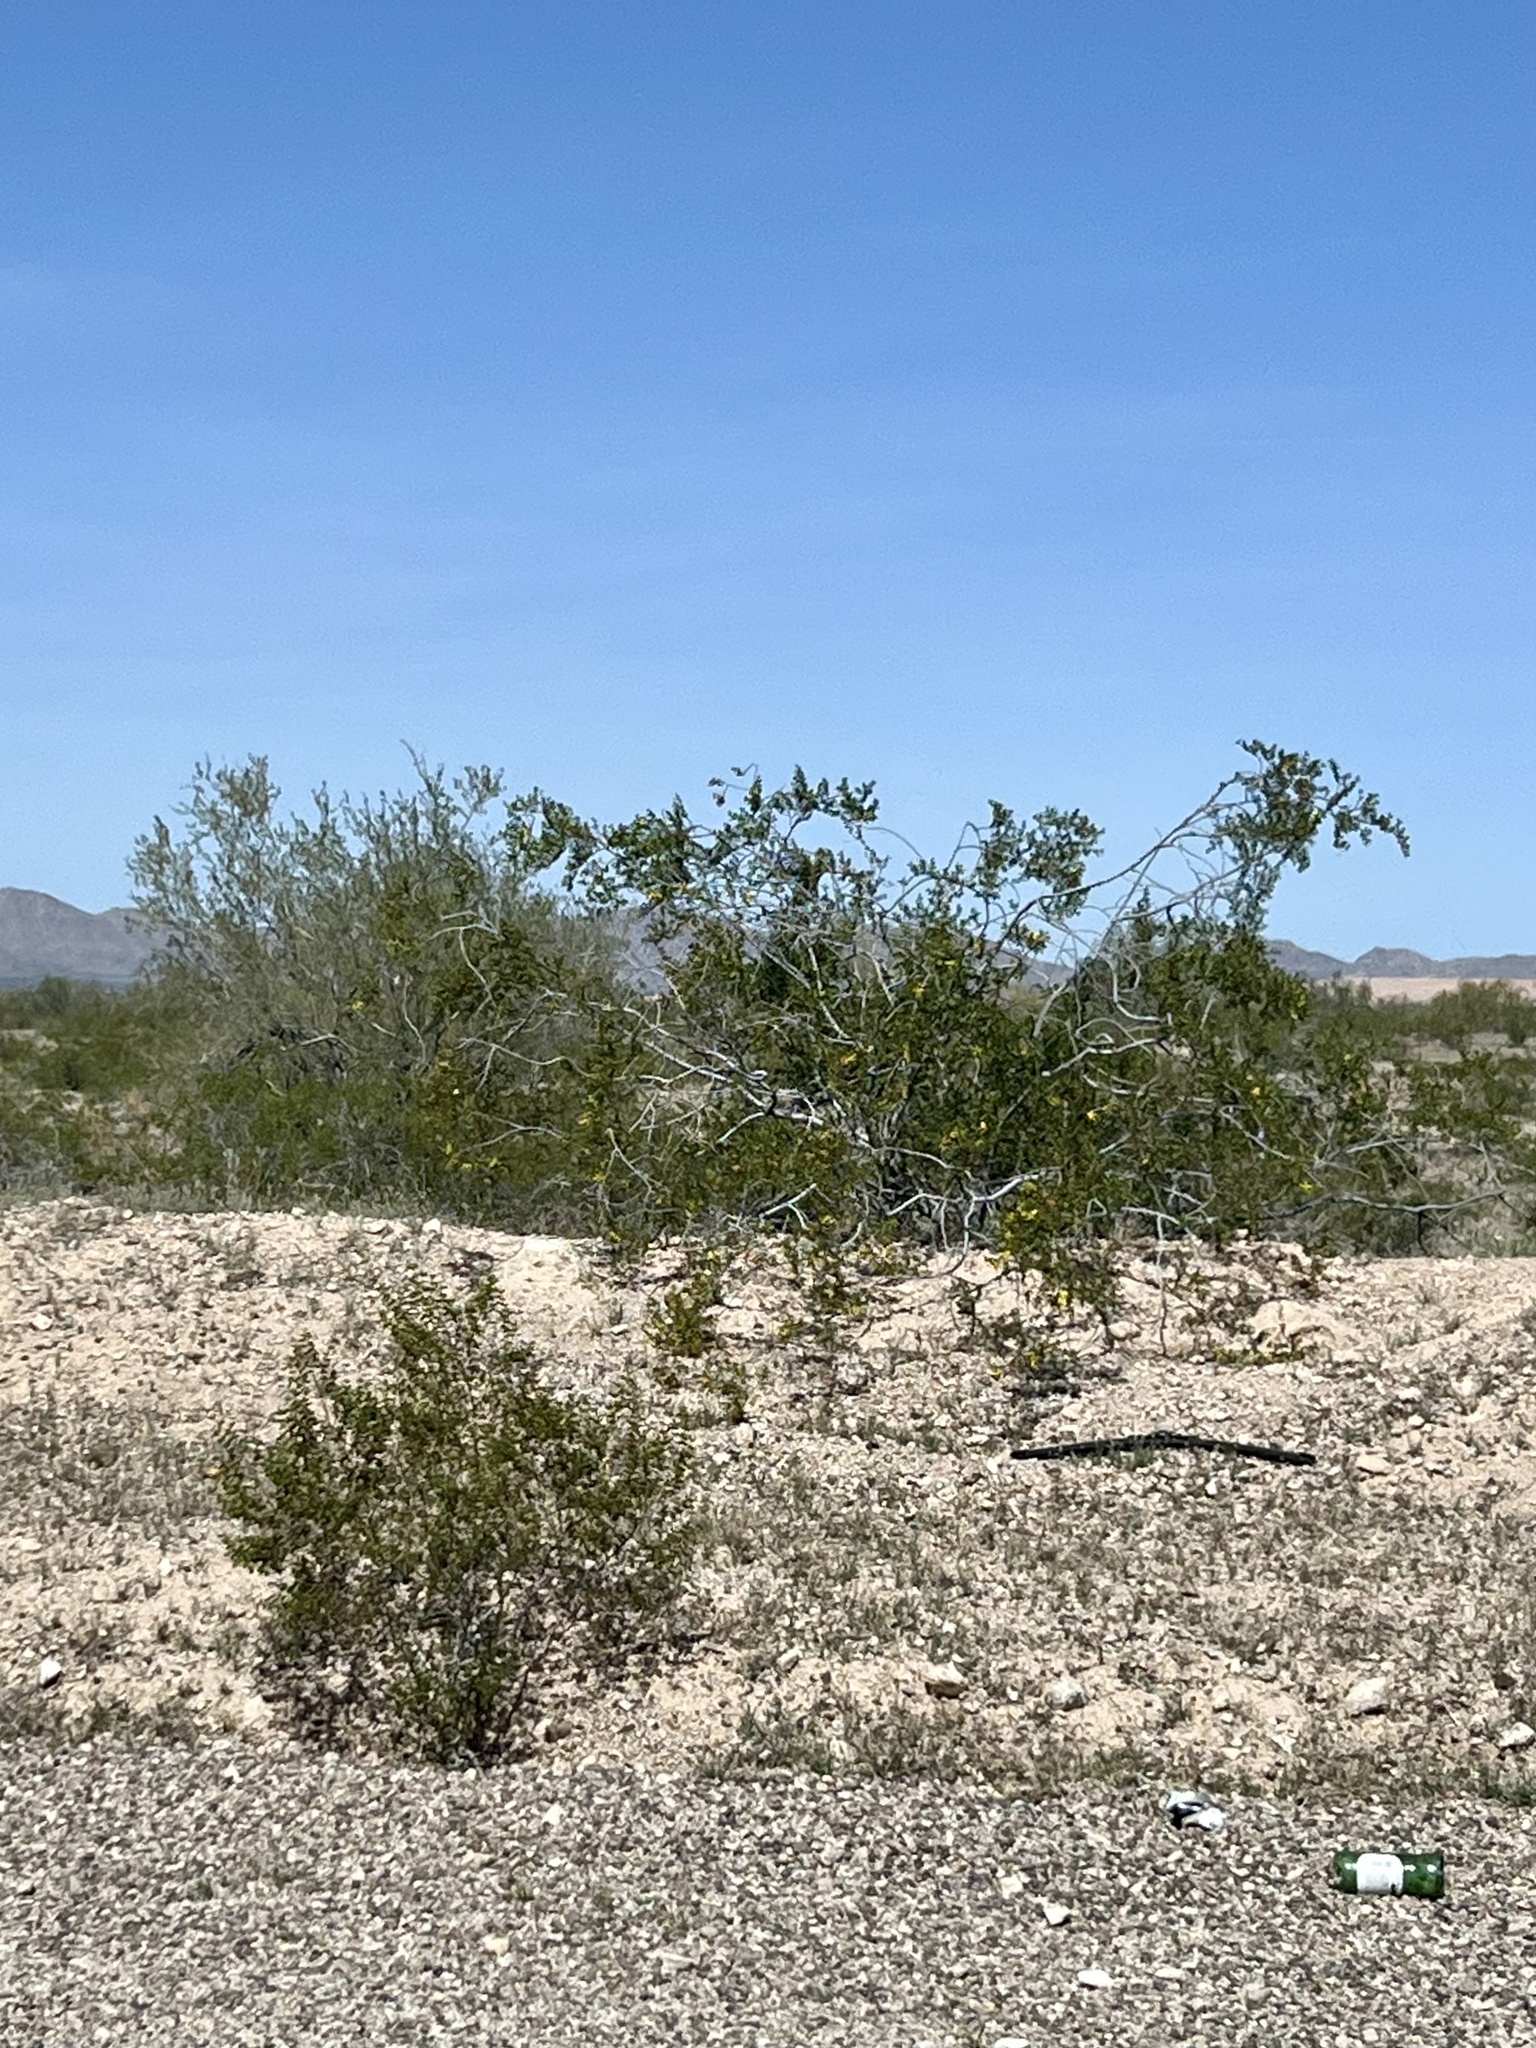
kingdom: Plantae
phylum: Tracheophyta
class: Magnoliopsida
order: Zygophyllales
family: Zygophyllaceae
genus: Larrea
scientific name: Larrea tridentata
